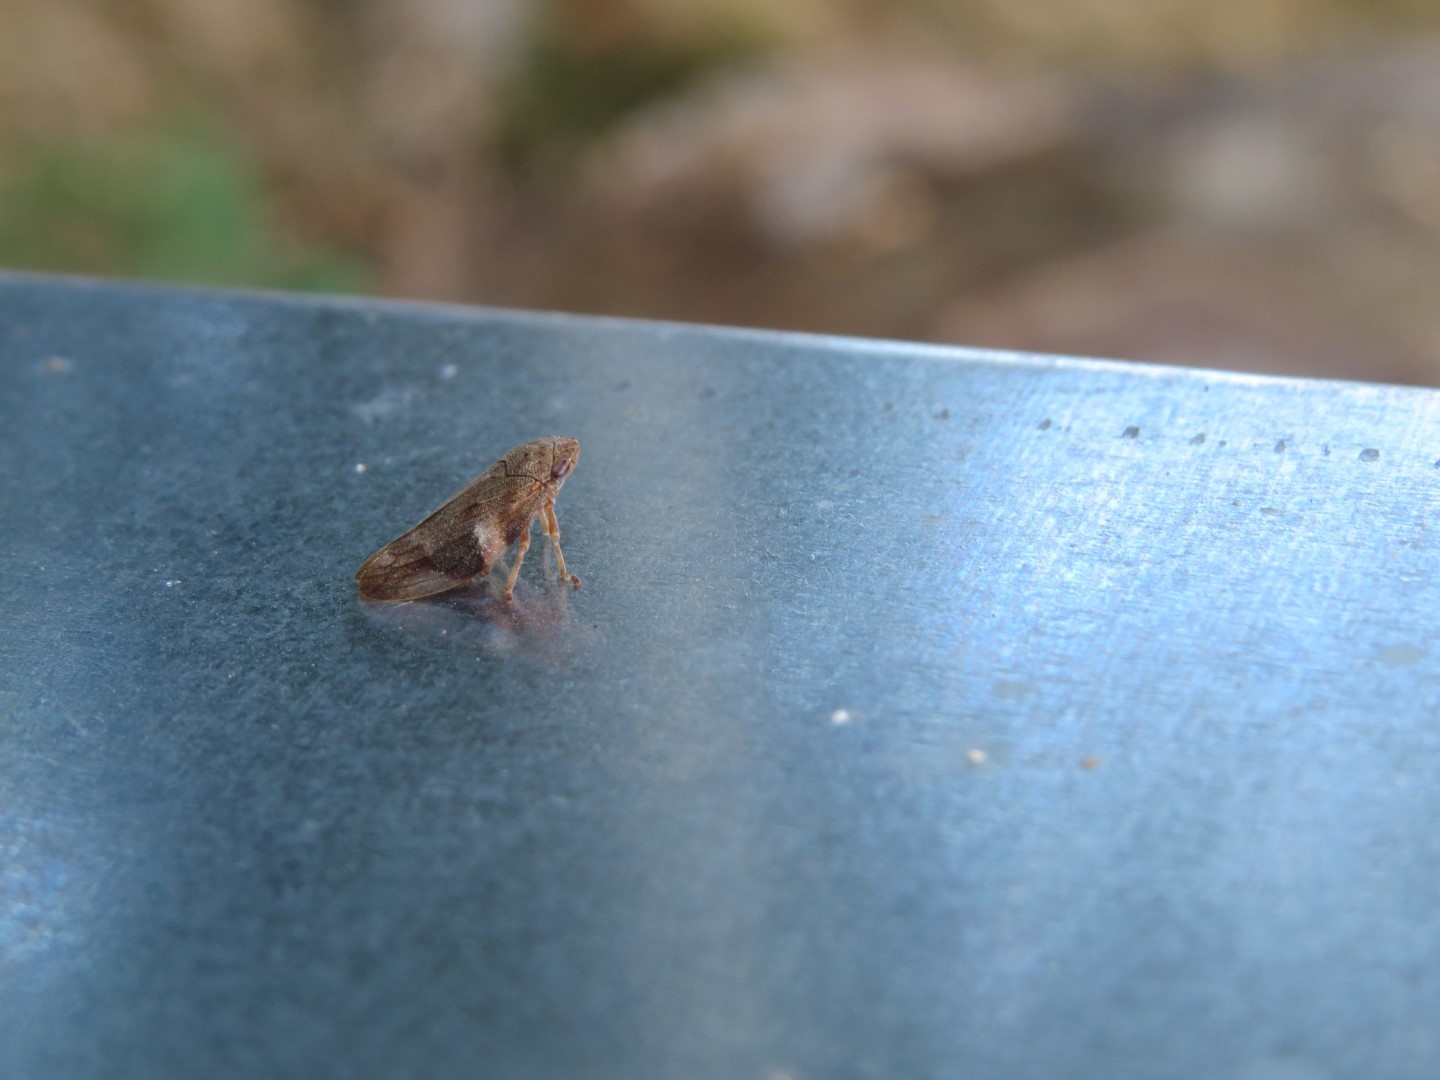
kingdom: Animalia
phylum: Arthropoda
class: Insecta
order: Hemiptera
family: Aphrophoridae
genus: Aphrophora
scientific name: Aphrophora alni
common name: European alder spittlebug
